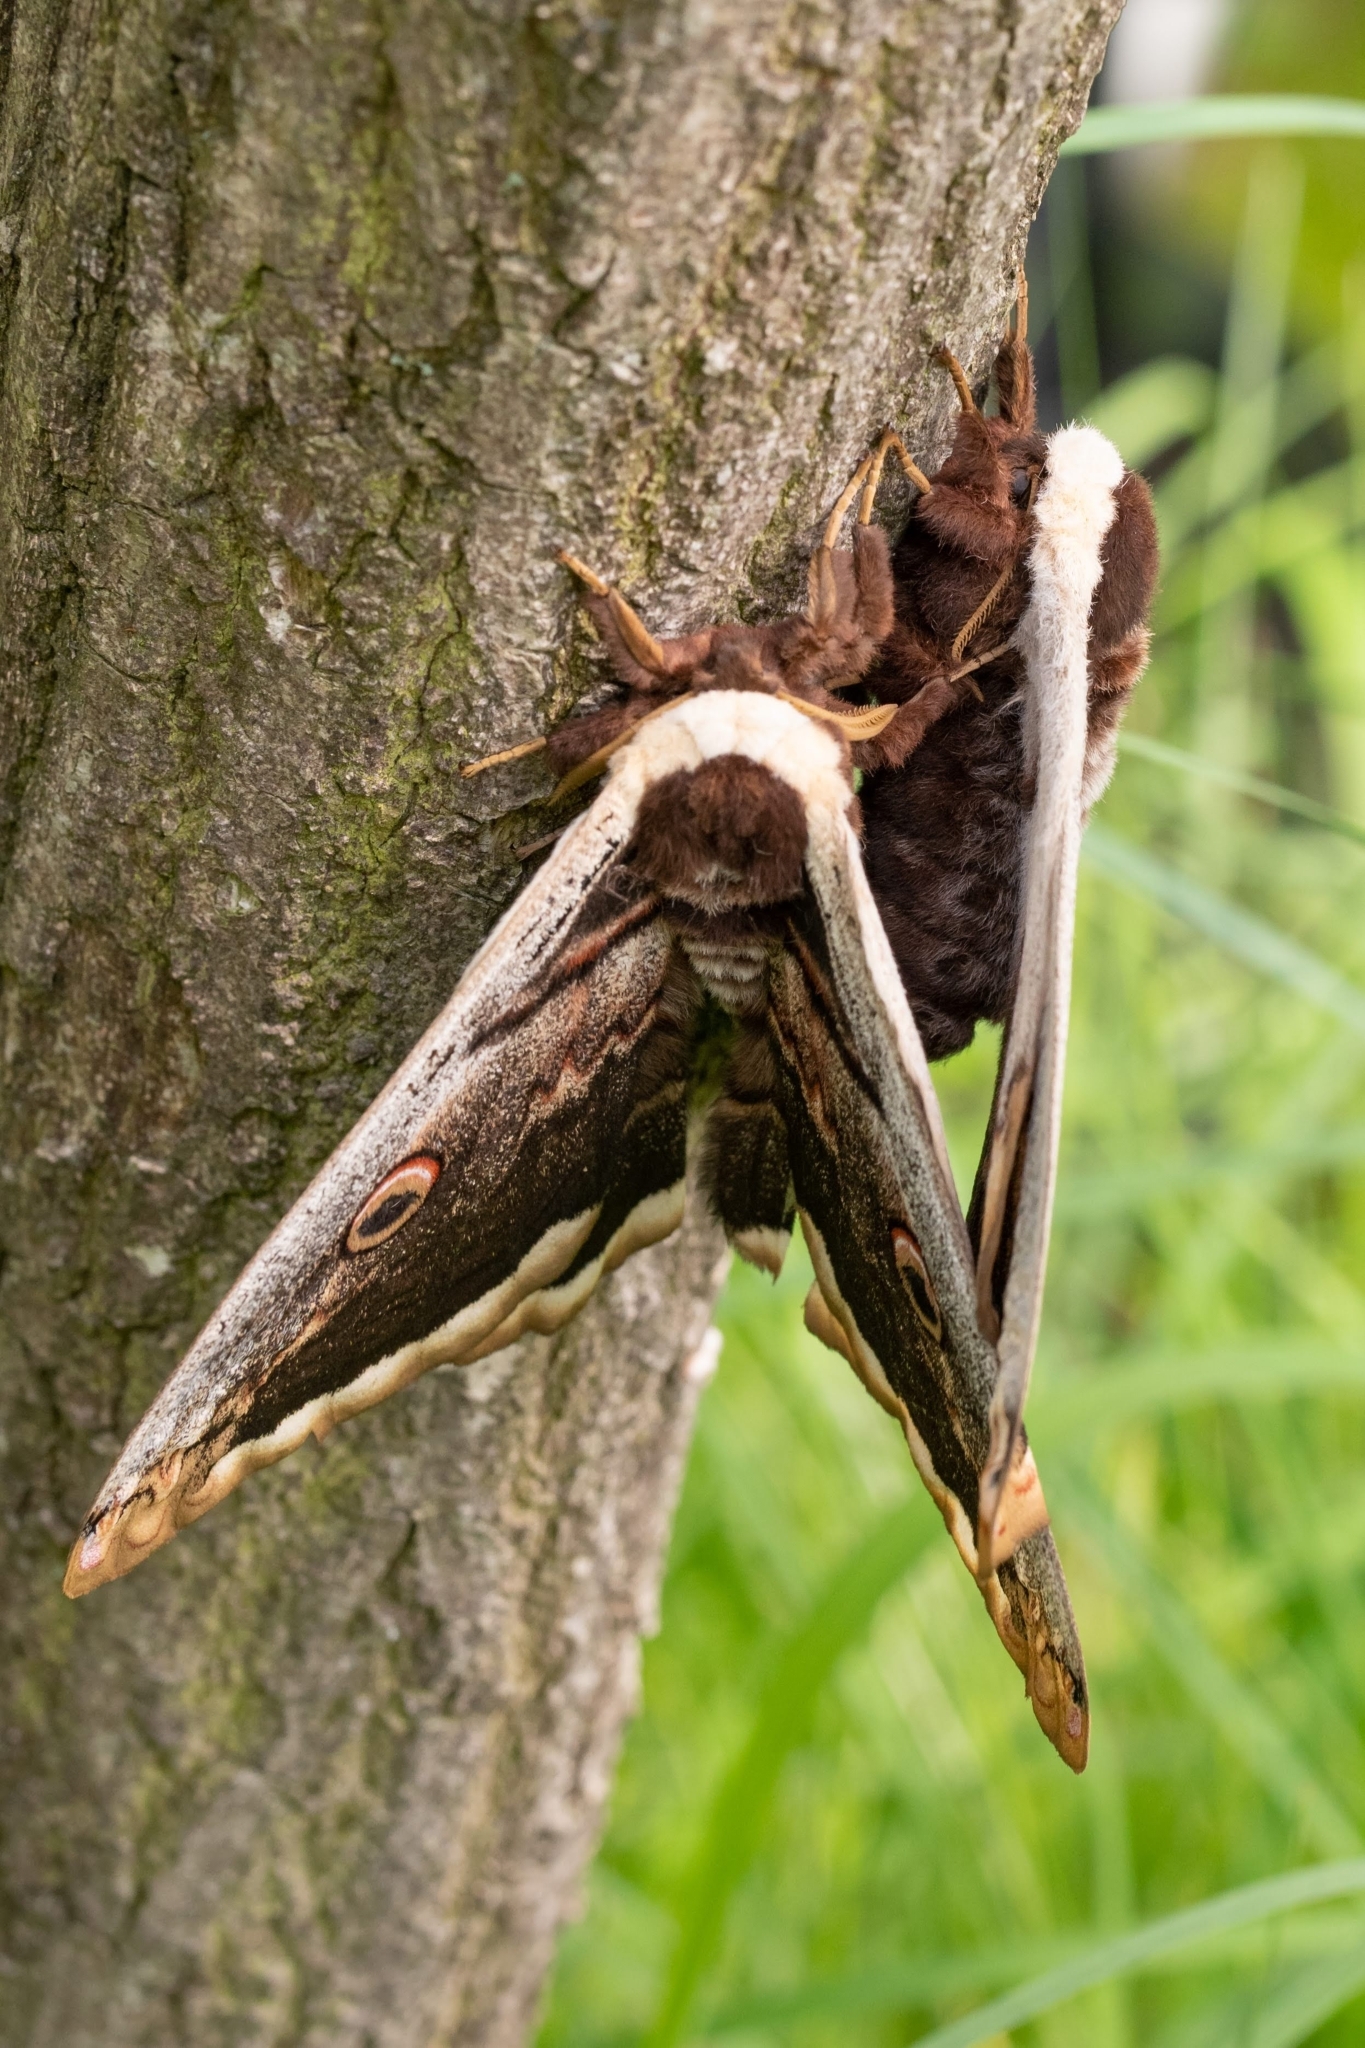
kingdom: Animalia
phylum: Arthropoda
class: Insecta
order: Lepidoptera
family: Saturniidae
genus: Saturnia
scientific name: Saturnia pyri
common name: Great peacock moth
